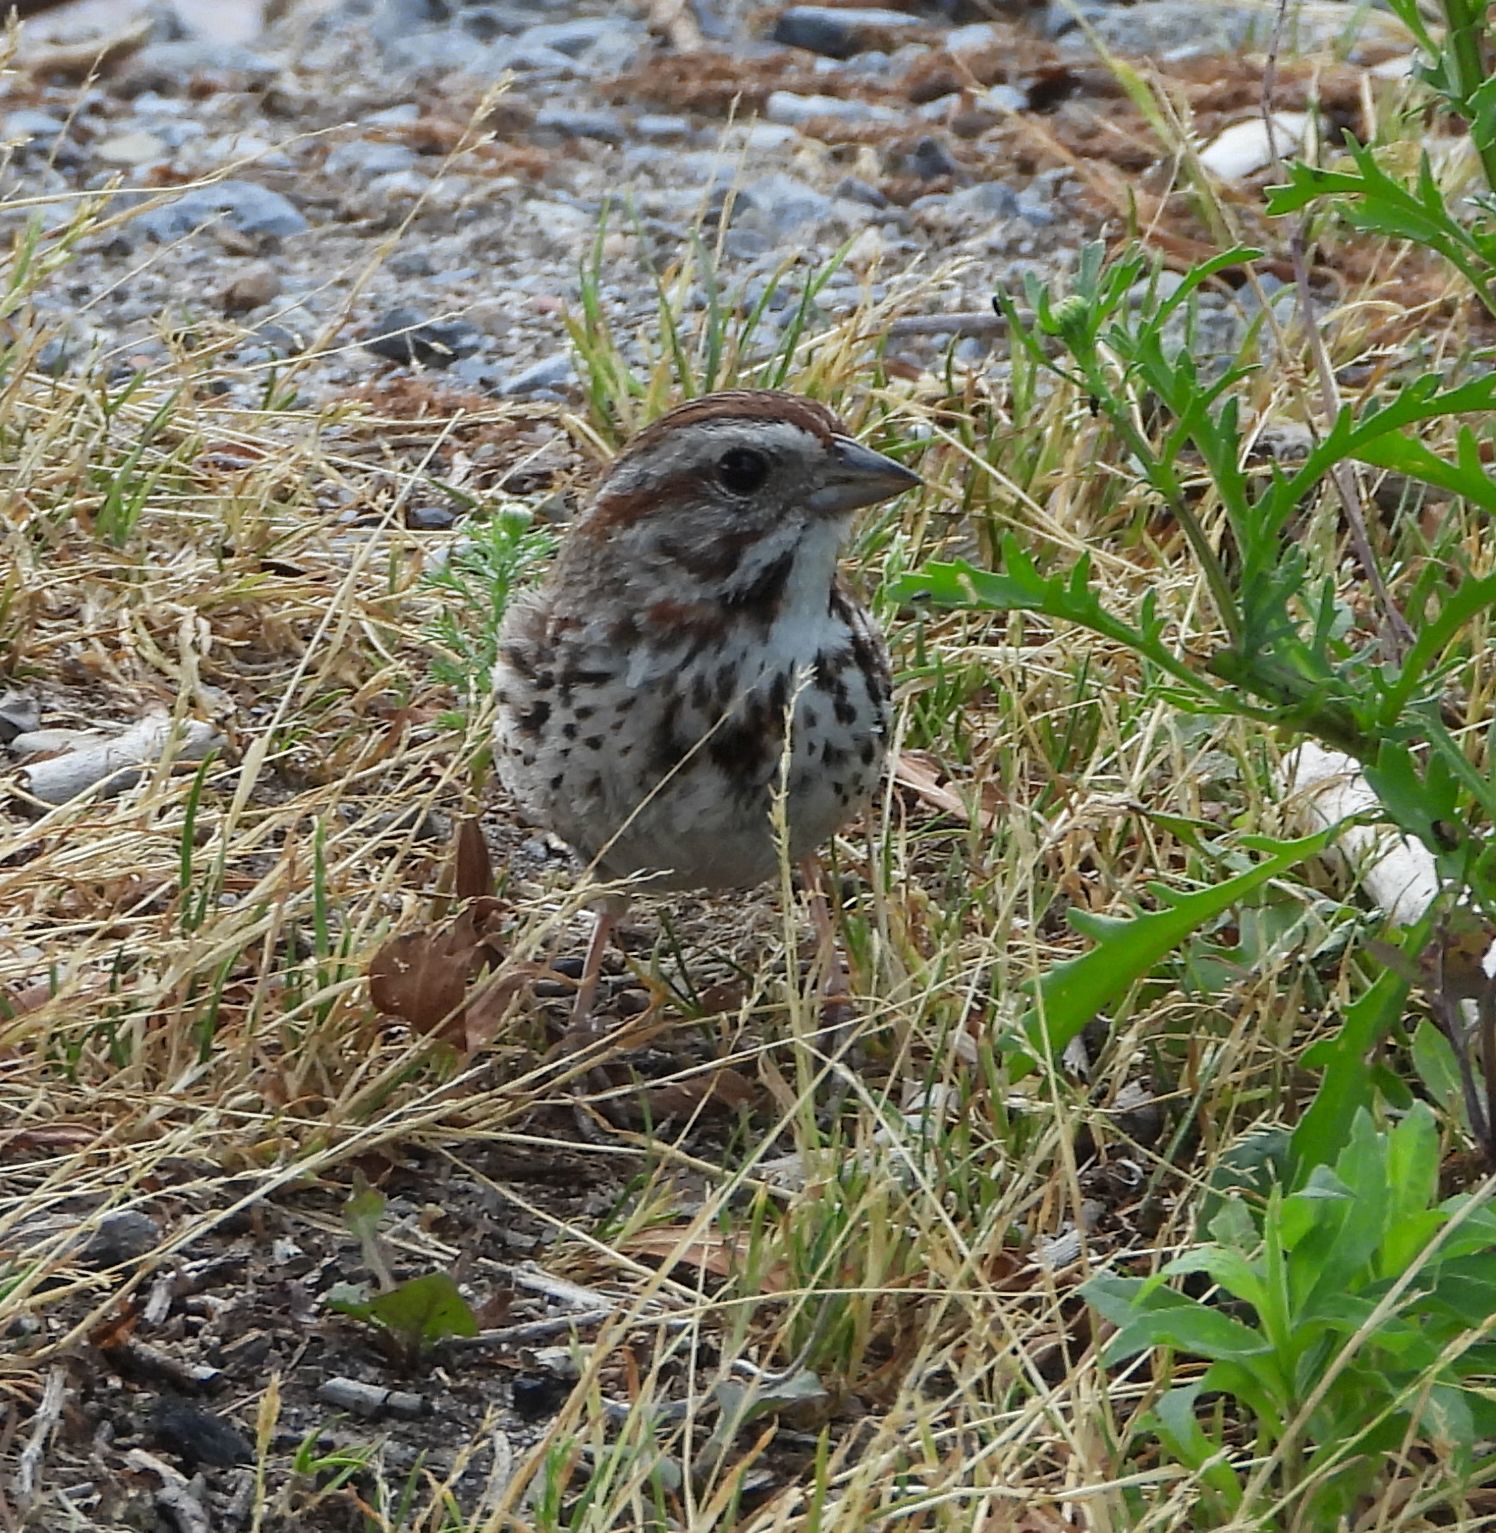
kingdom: Animalia
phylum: Chordata
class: Aves
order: Passeriformes
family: Passerellidae
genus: Melospiza
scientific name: Melospiza melodia
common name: Song sparrow
